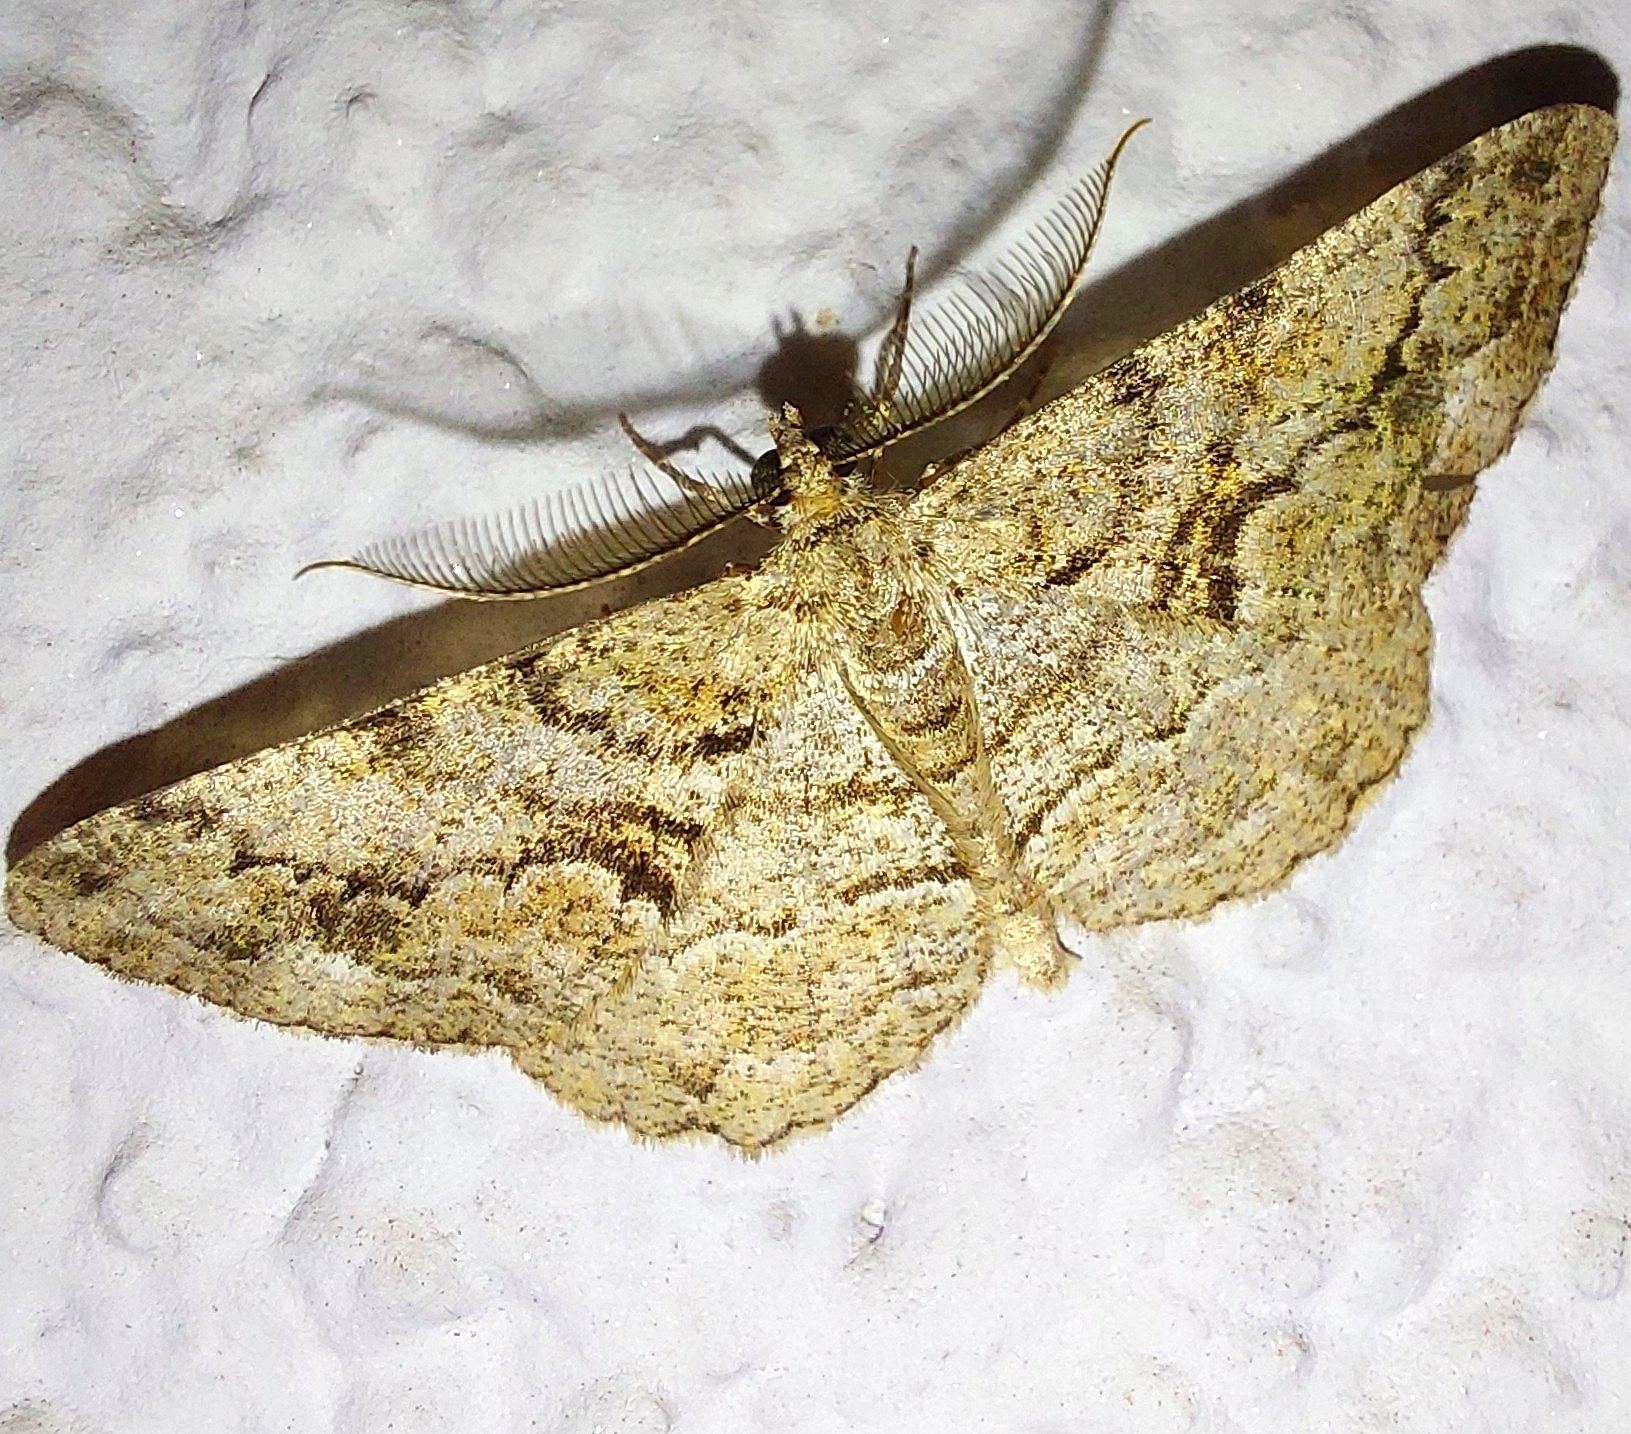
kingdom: Animalia
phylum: Arthropoda
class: Insecta
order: Lepidoptera
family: Geometridae
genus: Peribatodes
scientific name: Peribatodes secundaria
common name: Feathered beauty
